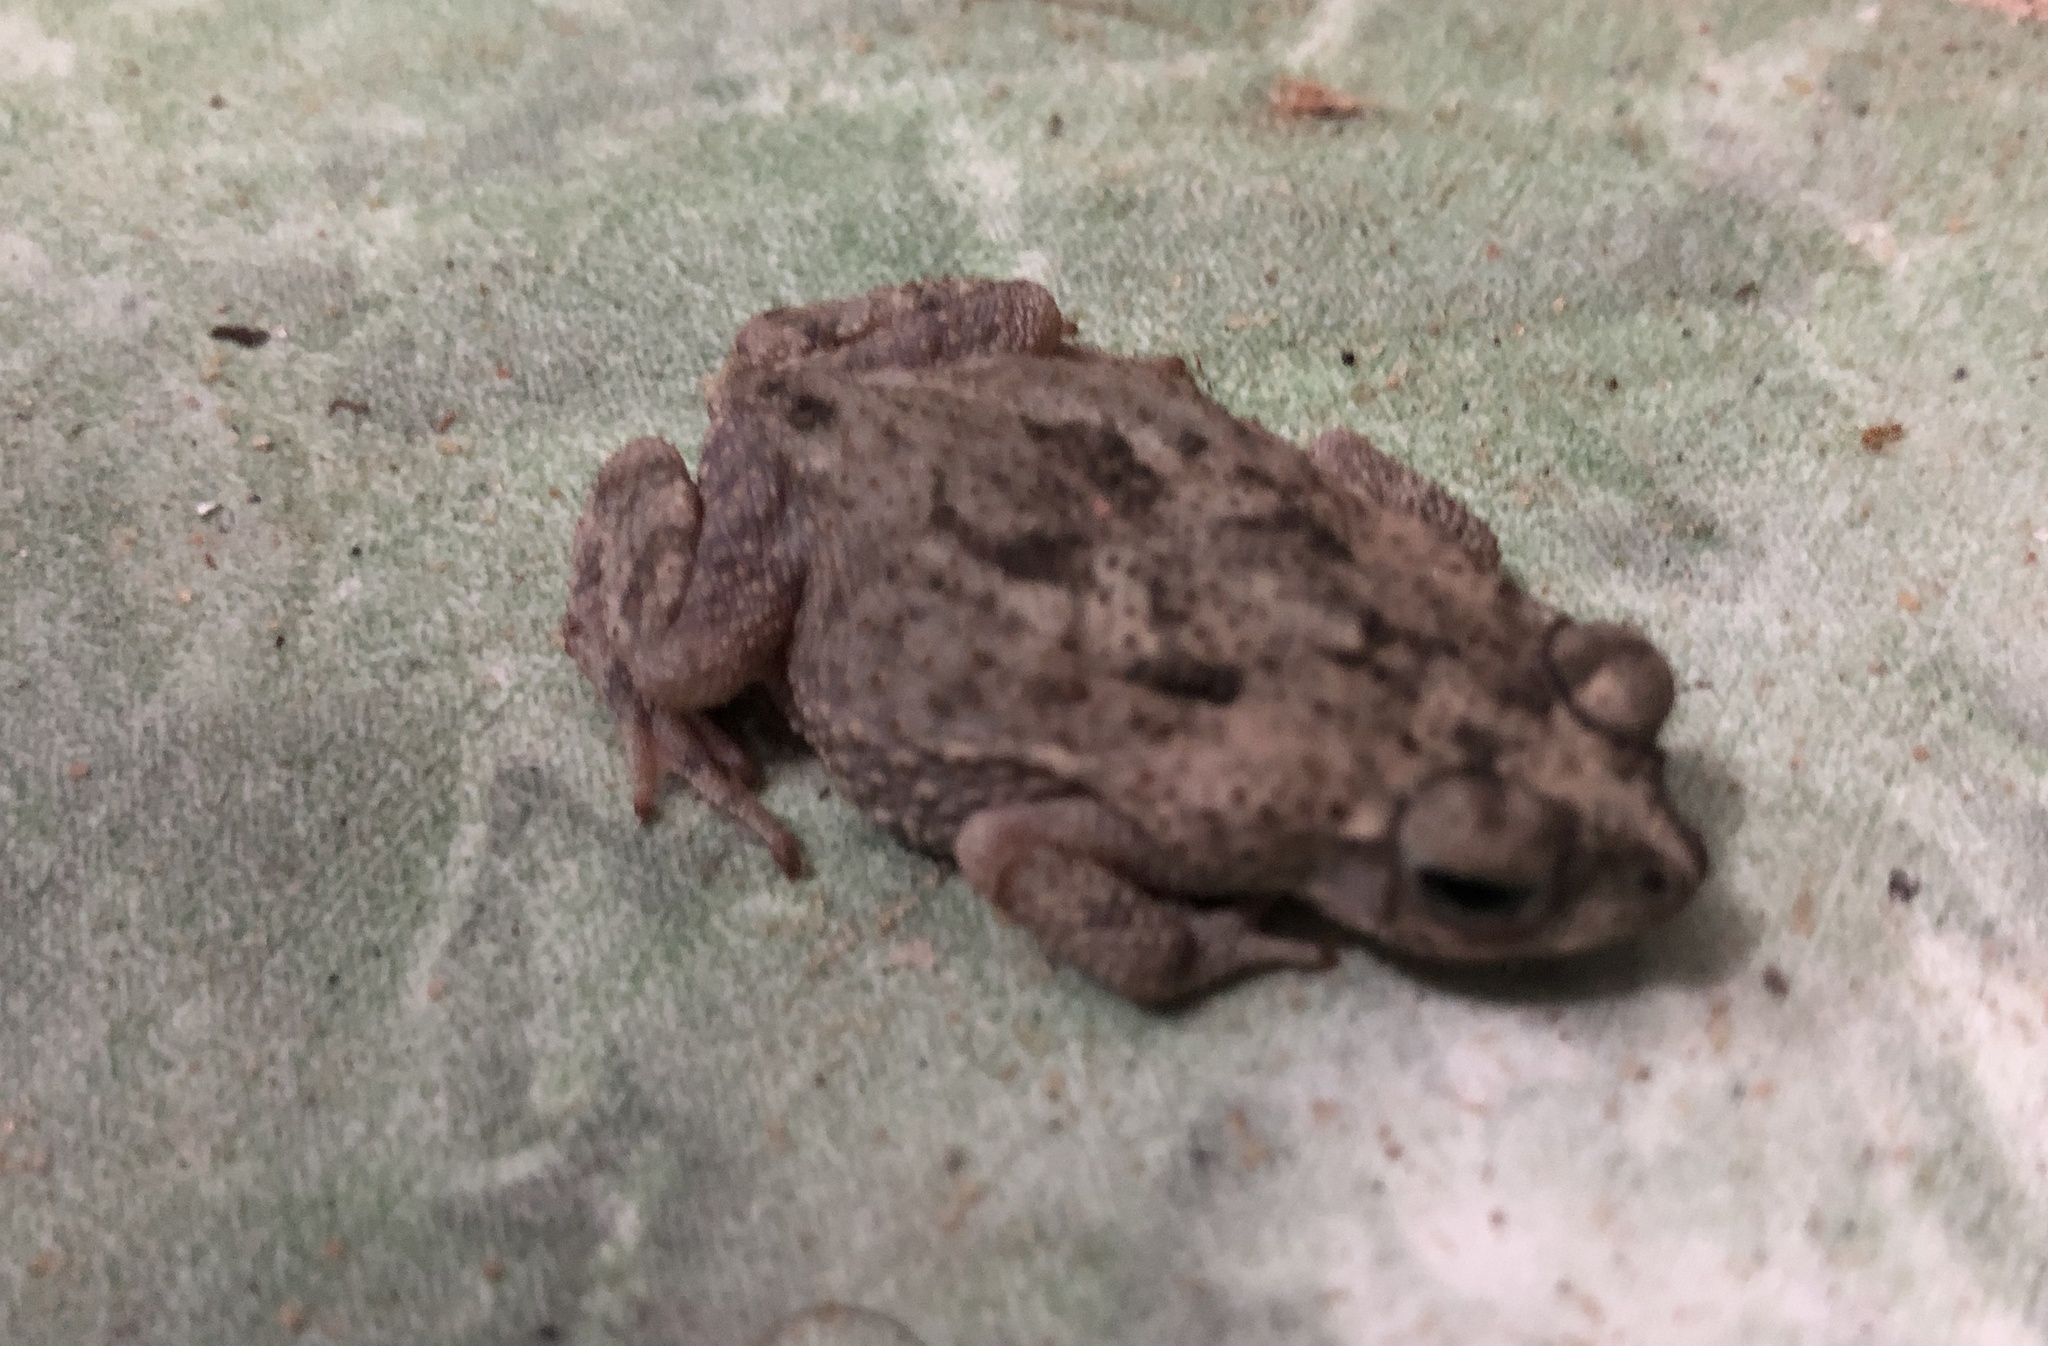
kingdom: Animalia
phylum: Chordata
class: Amphibia
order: Anura
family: Bufonidae
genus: Rhinella
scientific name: Rhinella granulosa
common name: Common lesser toad
